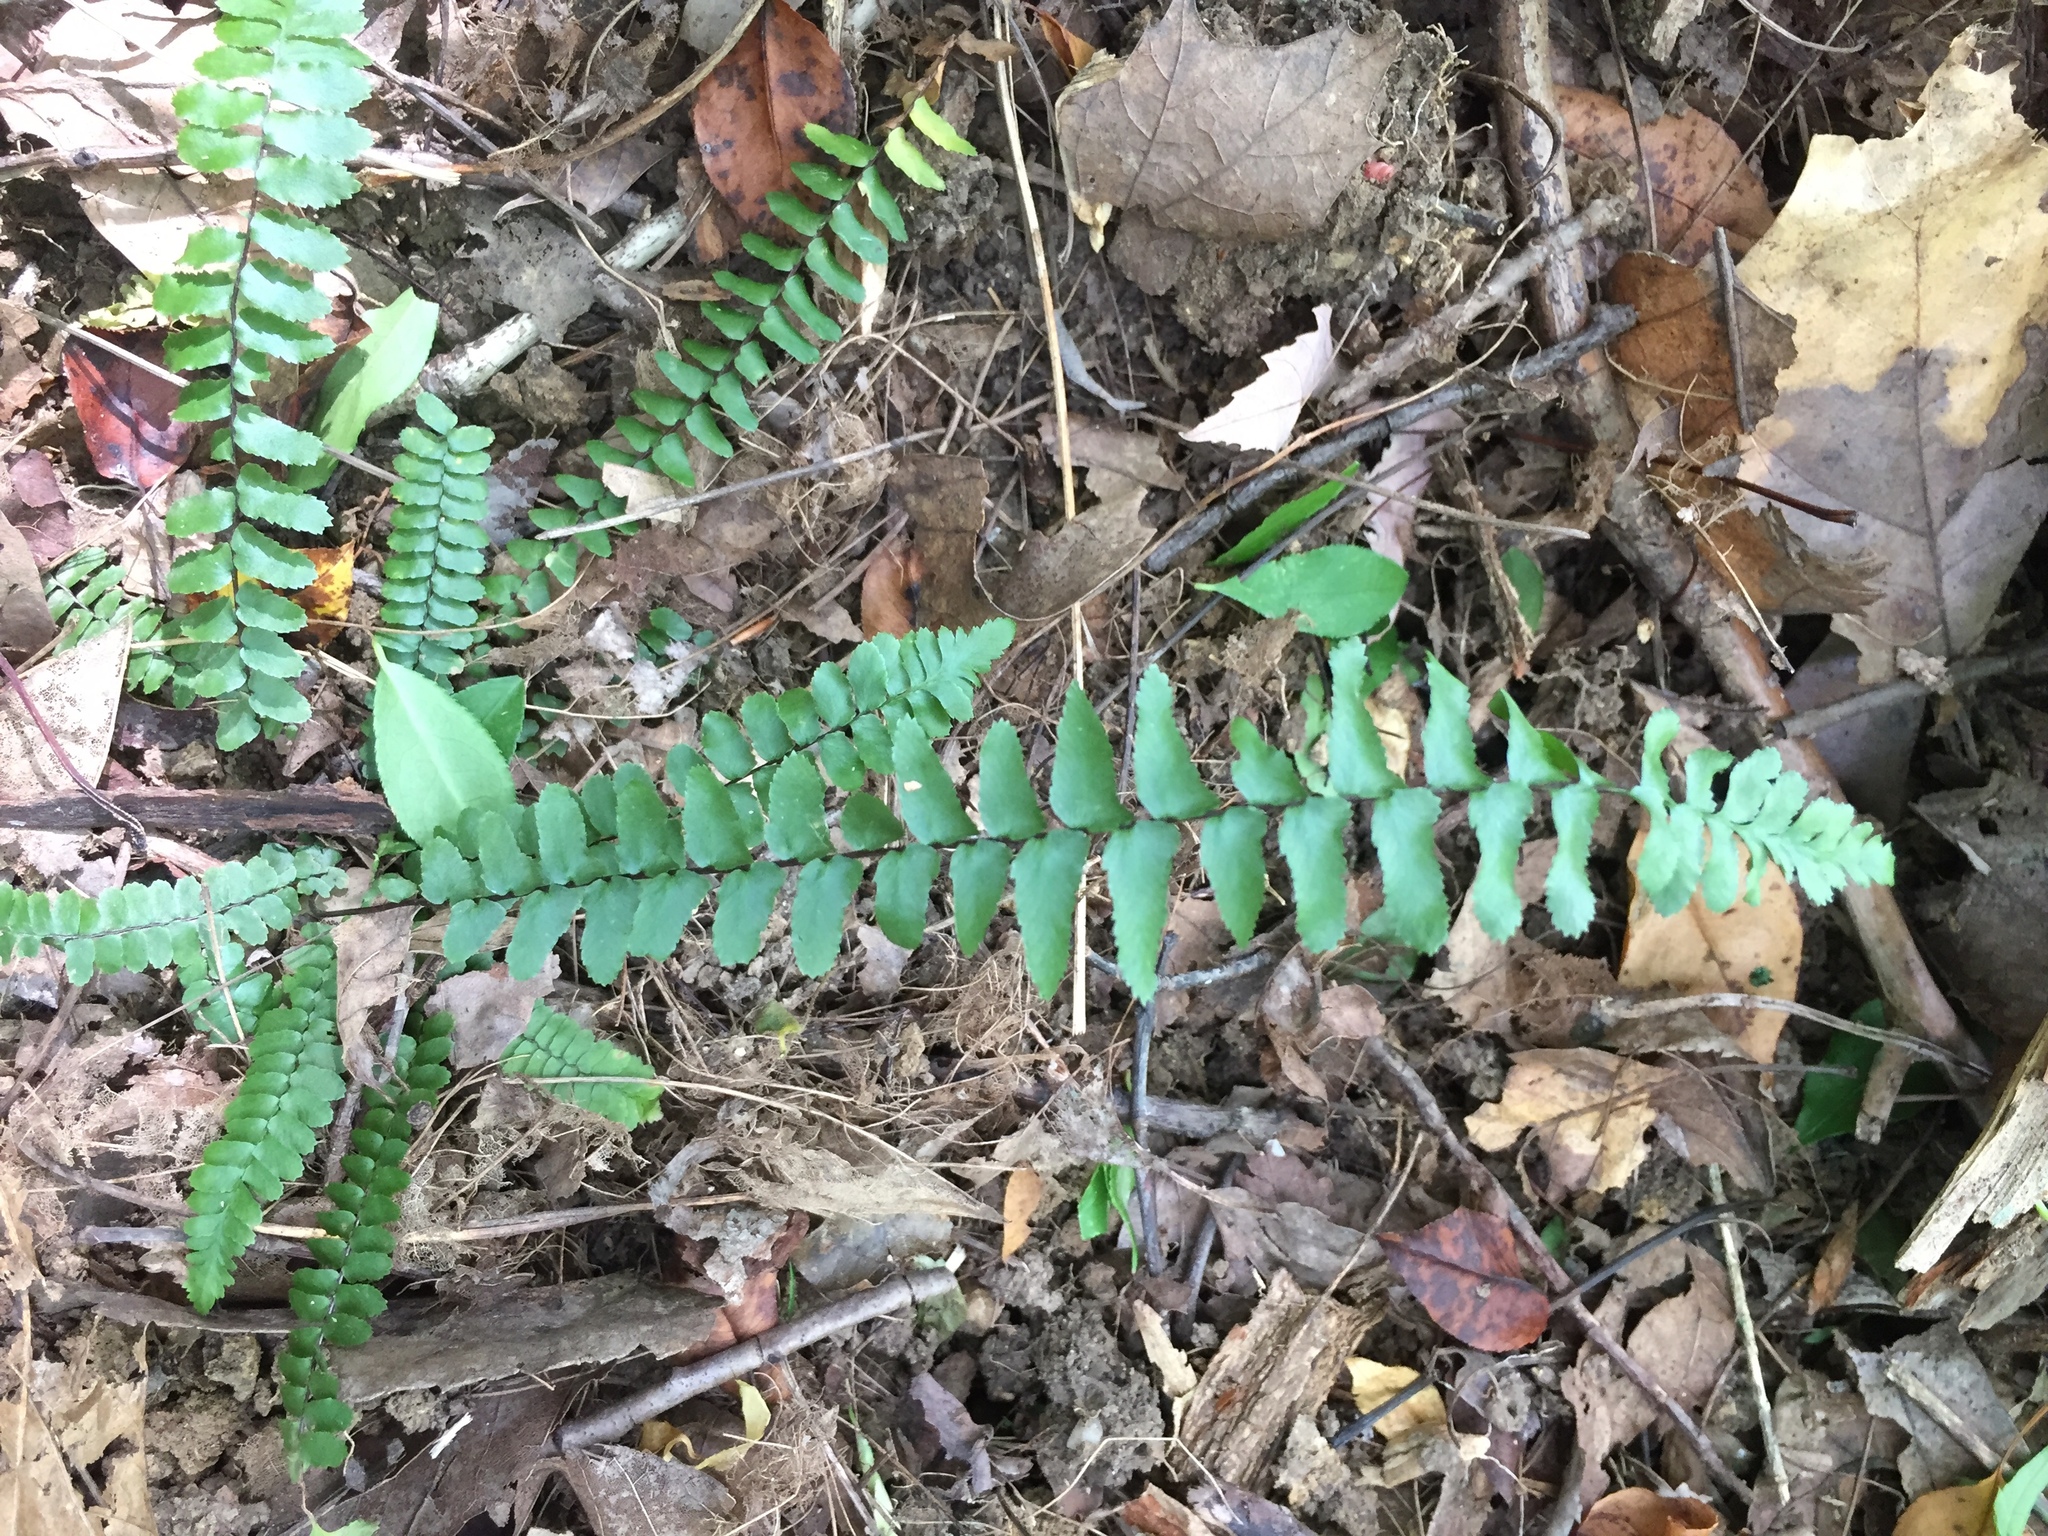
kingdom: Plantae
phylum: Tracheophyta
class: Polypodiopsida
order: Polypodiales
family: Aspleniaceae
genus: Asplenium
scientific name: Asplenium platyneuron
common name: Ebony spleenwort
